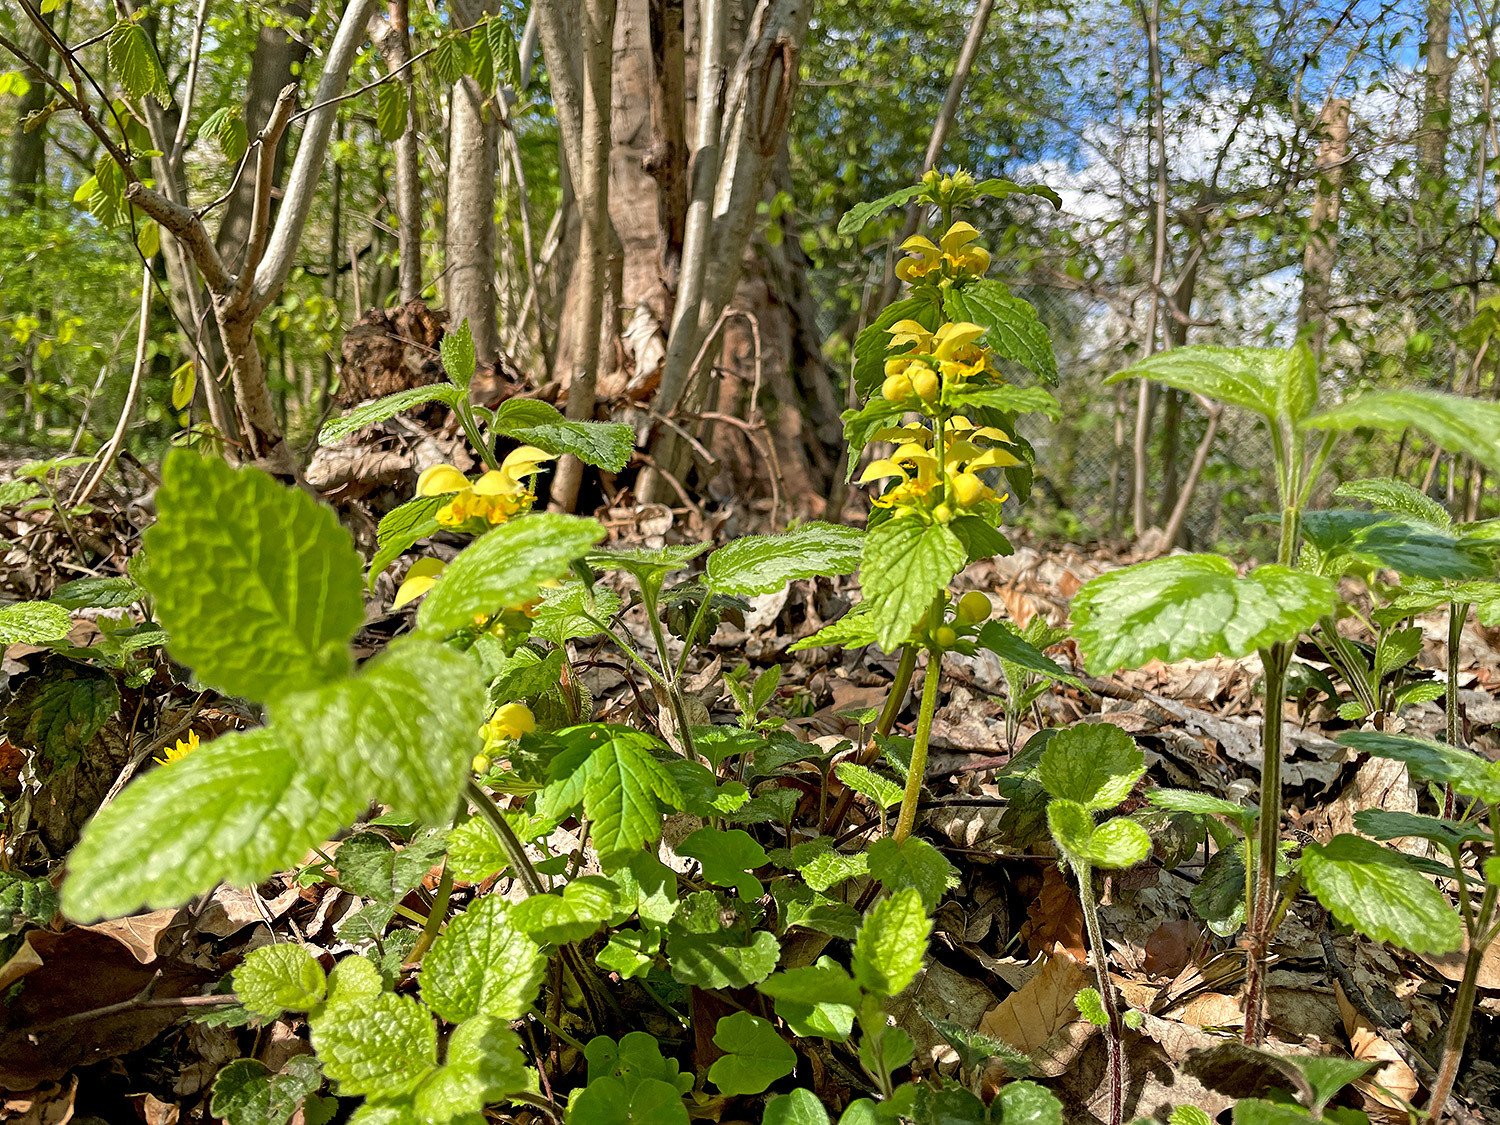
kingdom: Plantae
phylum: Tracheophyta
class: Magnoliopsida
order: Lamiales
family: Lamiaceae
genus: Lamium
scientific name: Lamium galeobdolon
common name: Yellow archangel
